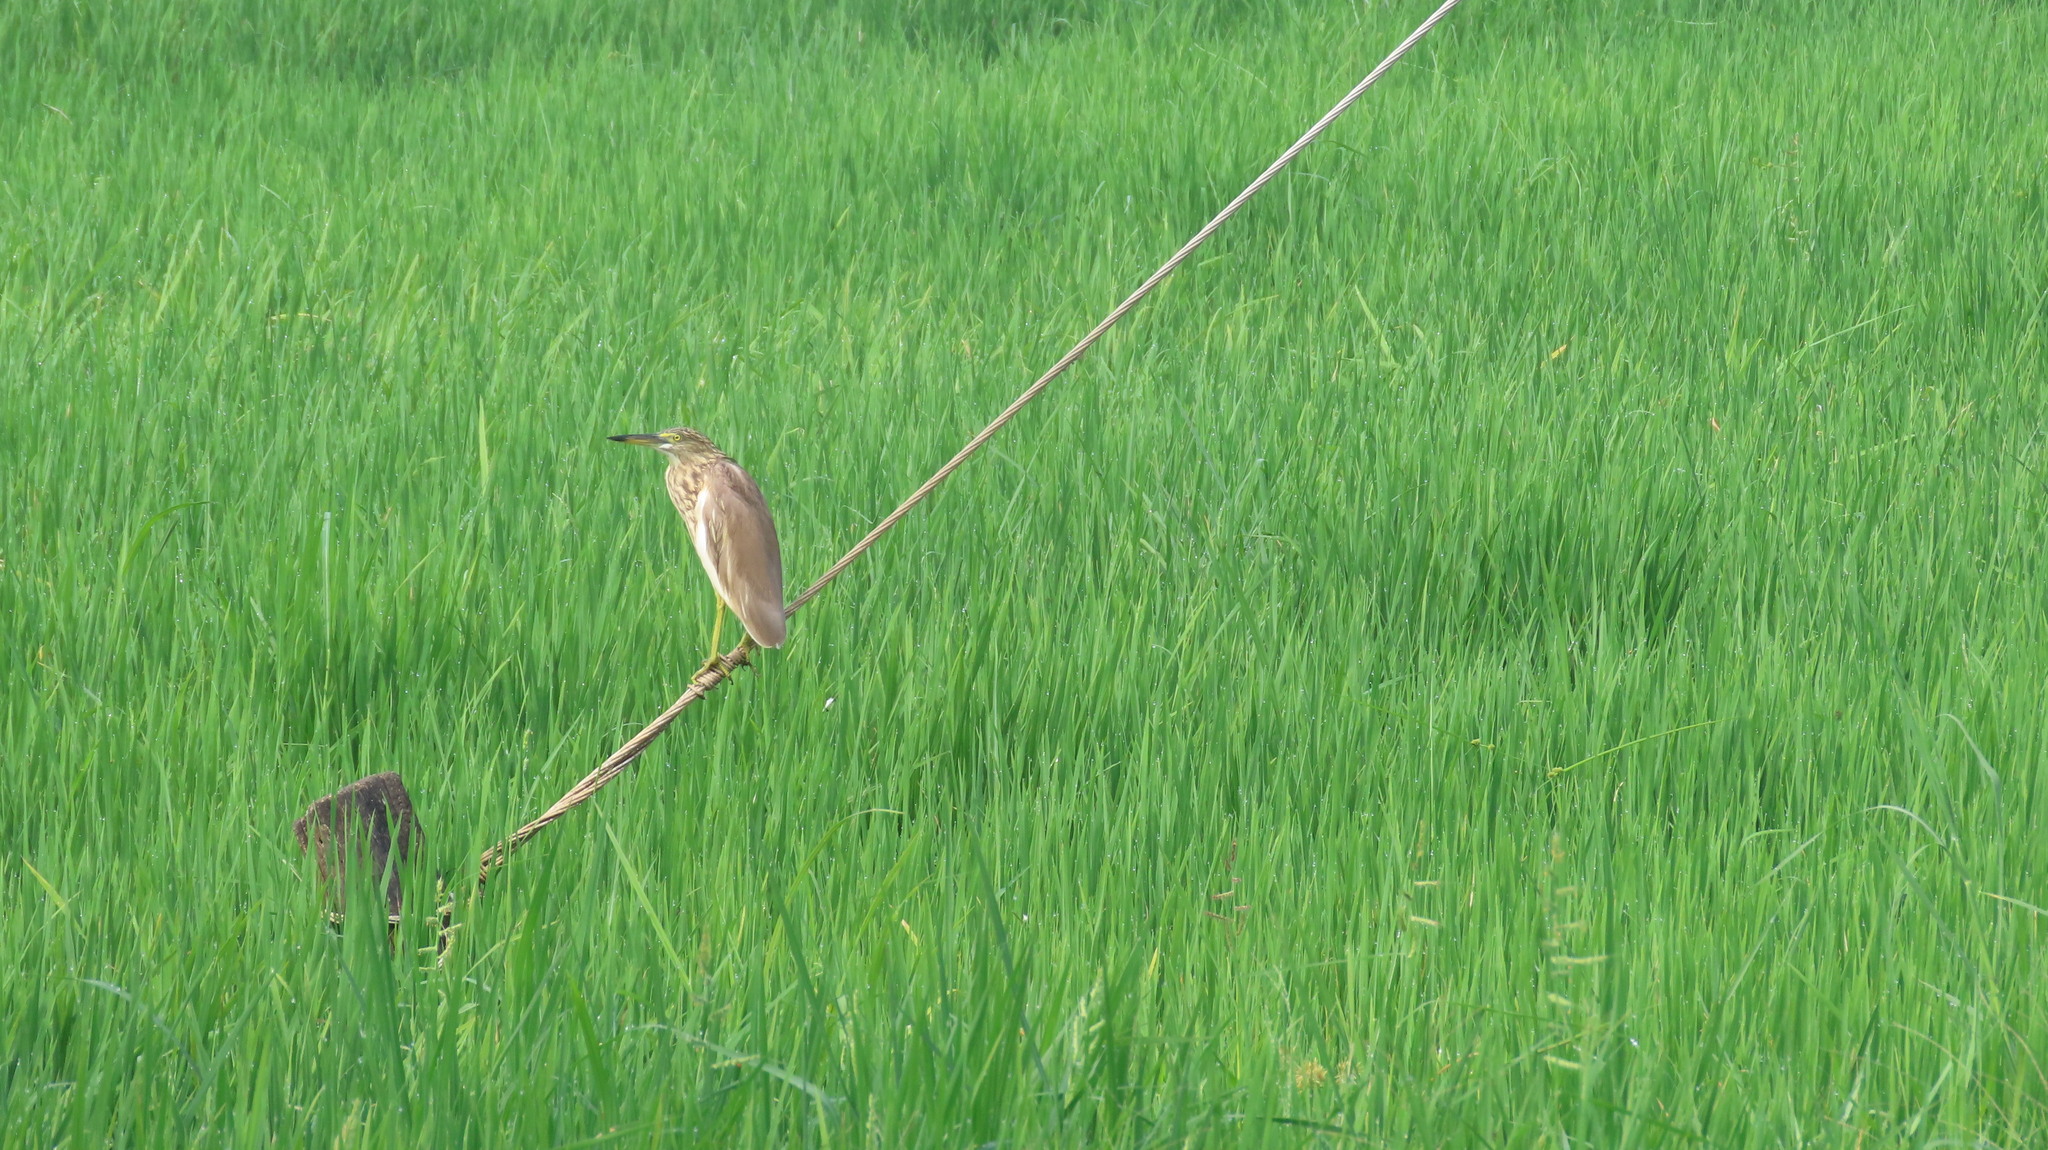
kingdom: Animalia
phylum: Chordata
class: Aves
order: Pelecaniformes
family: Ardeidae
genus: Ardeola
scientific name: Ardeola grayii
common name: Indian pond heron
